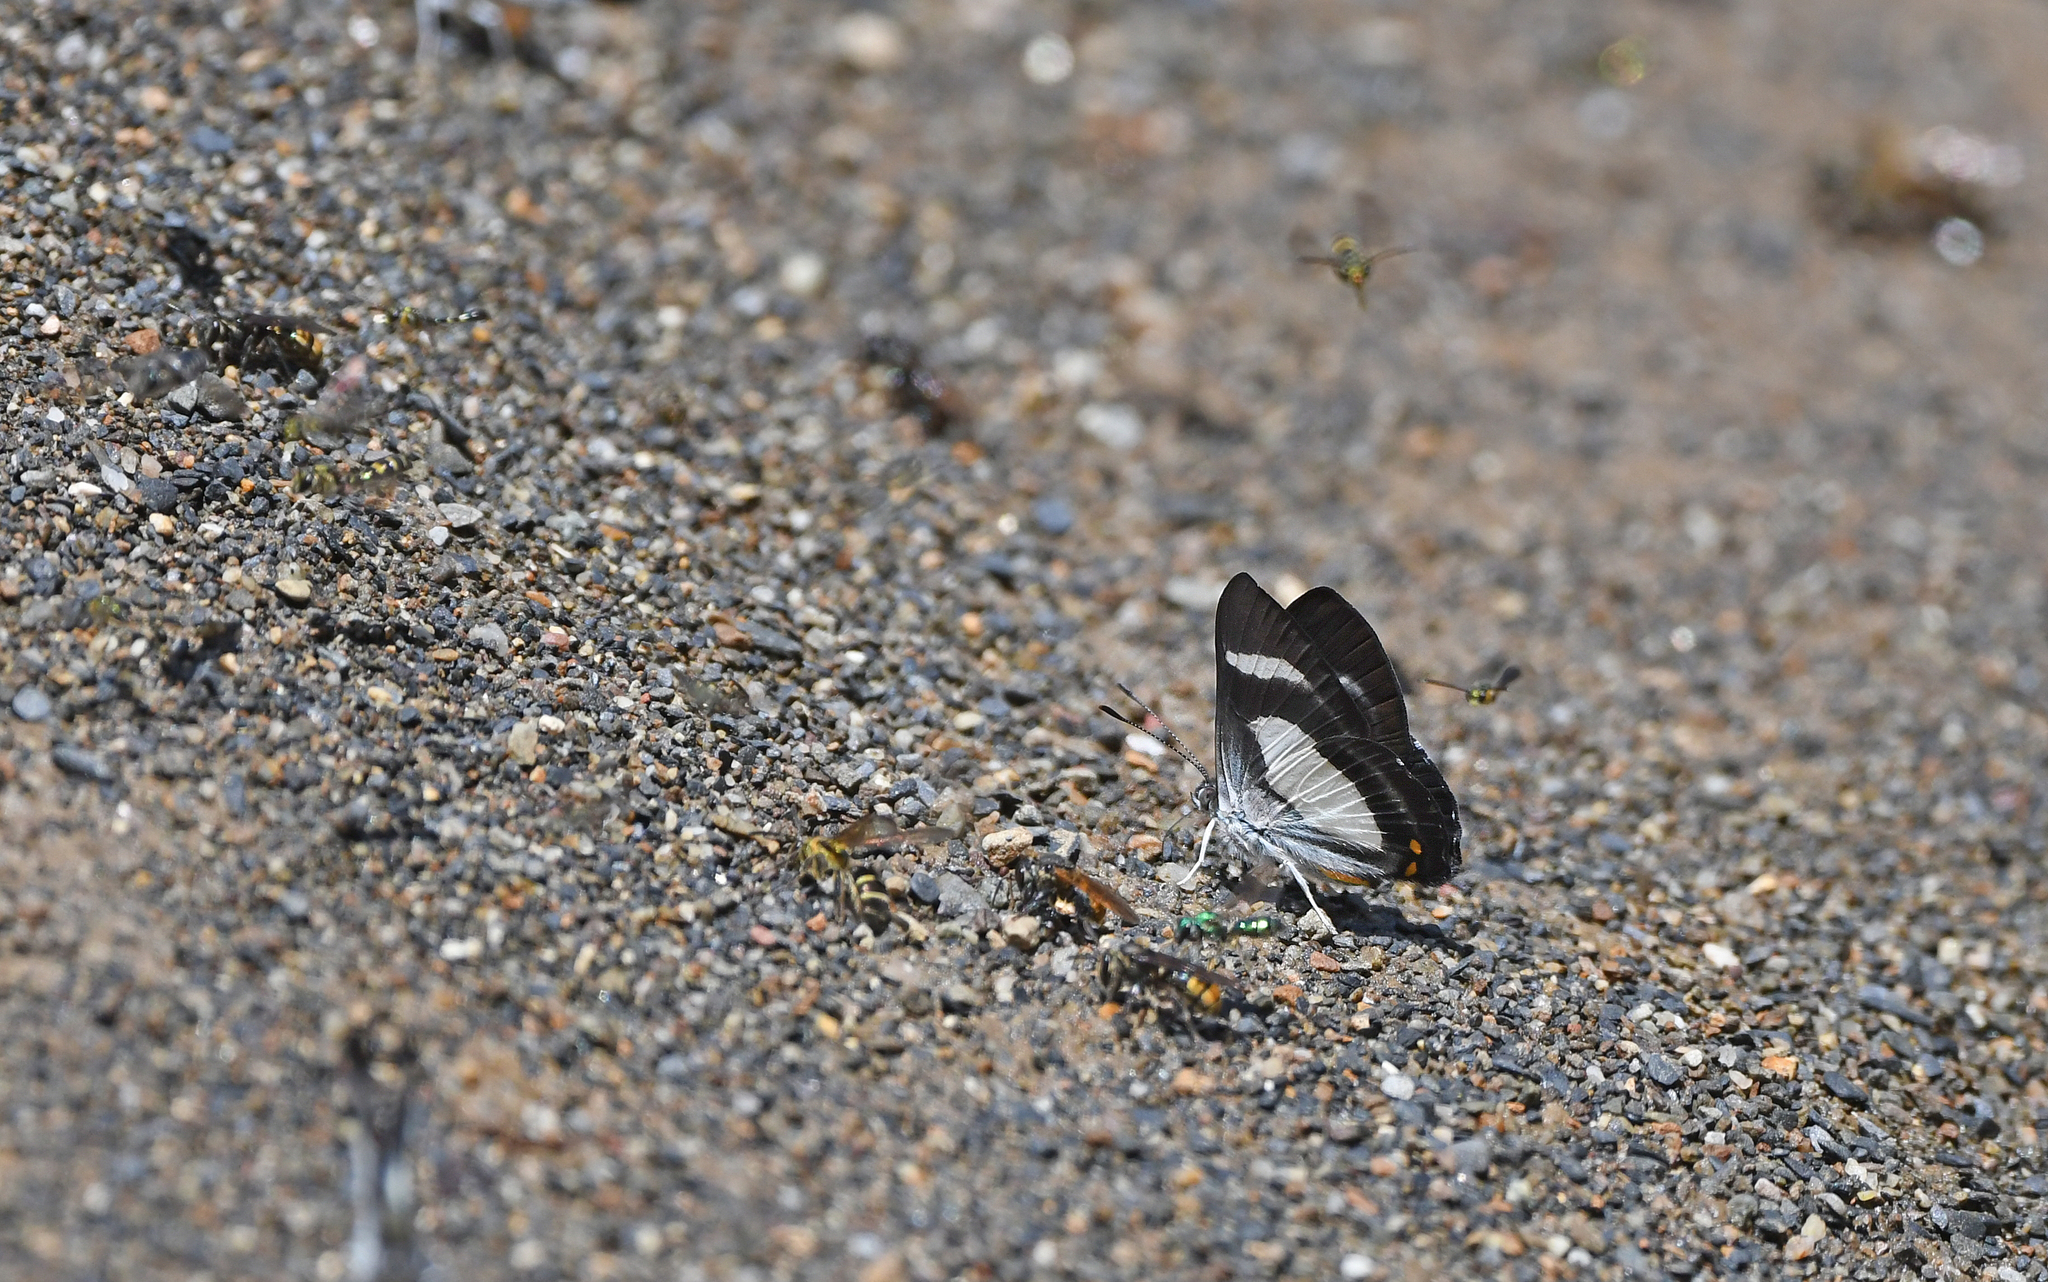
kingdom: Animalia
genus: Siseme
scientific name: Siseme alectryo
